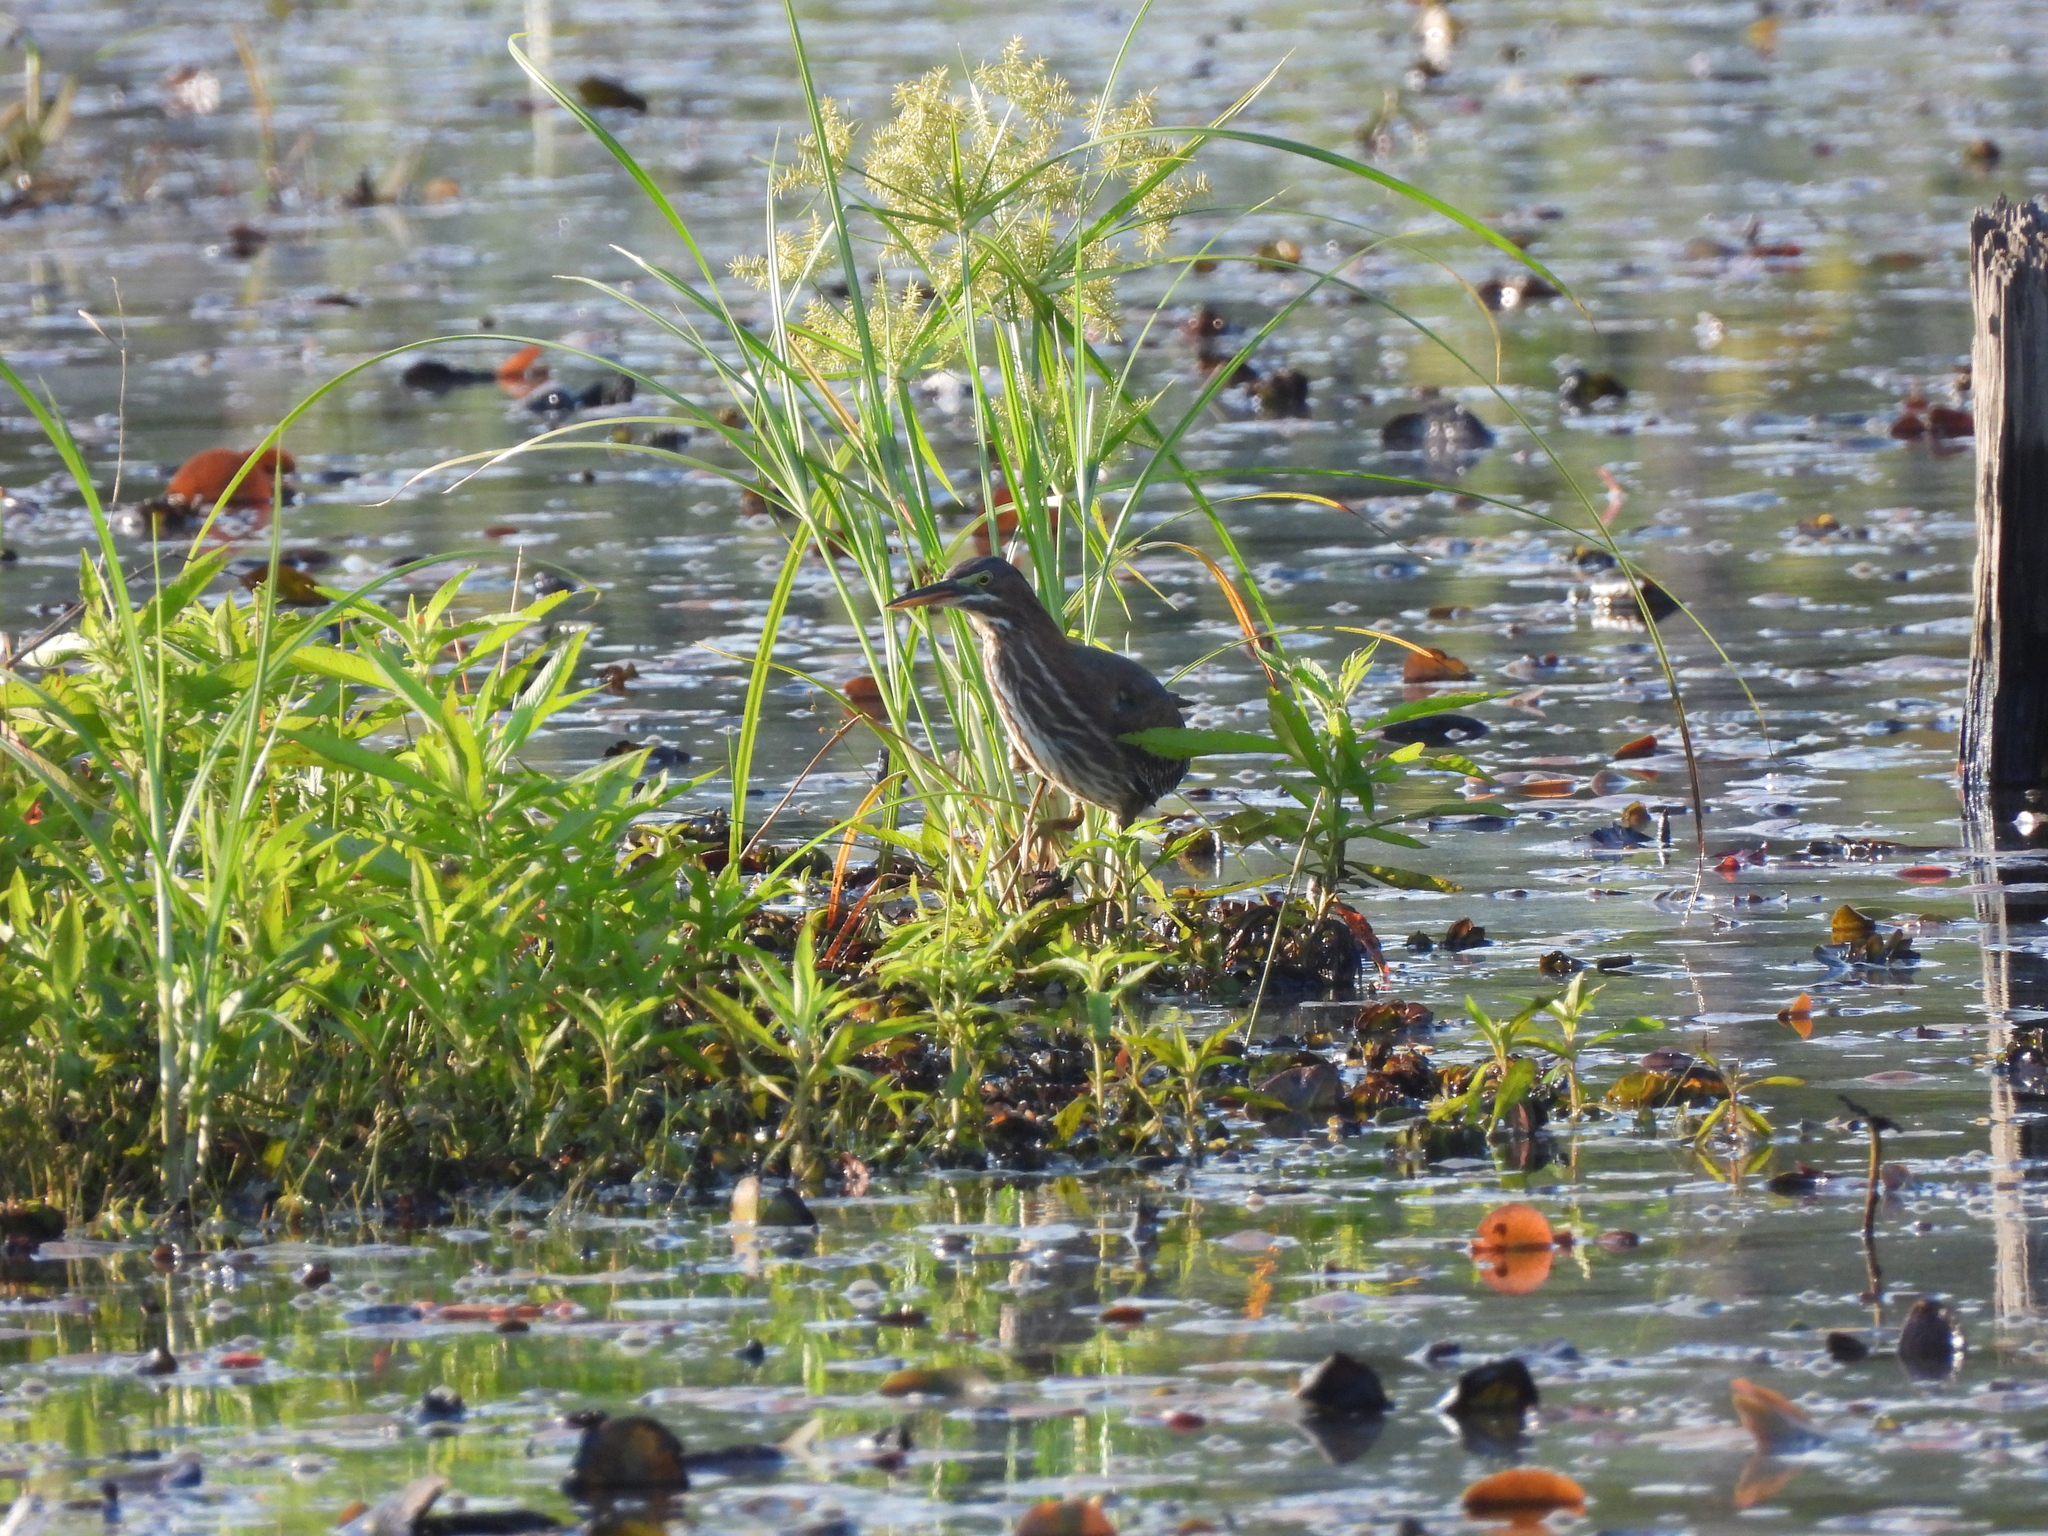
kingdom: Animalia
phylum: Chordata
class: Aves
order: Pelecaniformes
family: Ardeidae
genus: Butorides
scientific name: Butorides virescens
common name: Green heron
